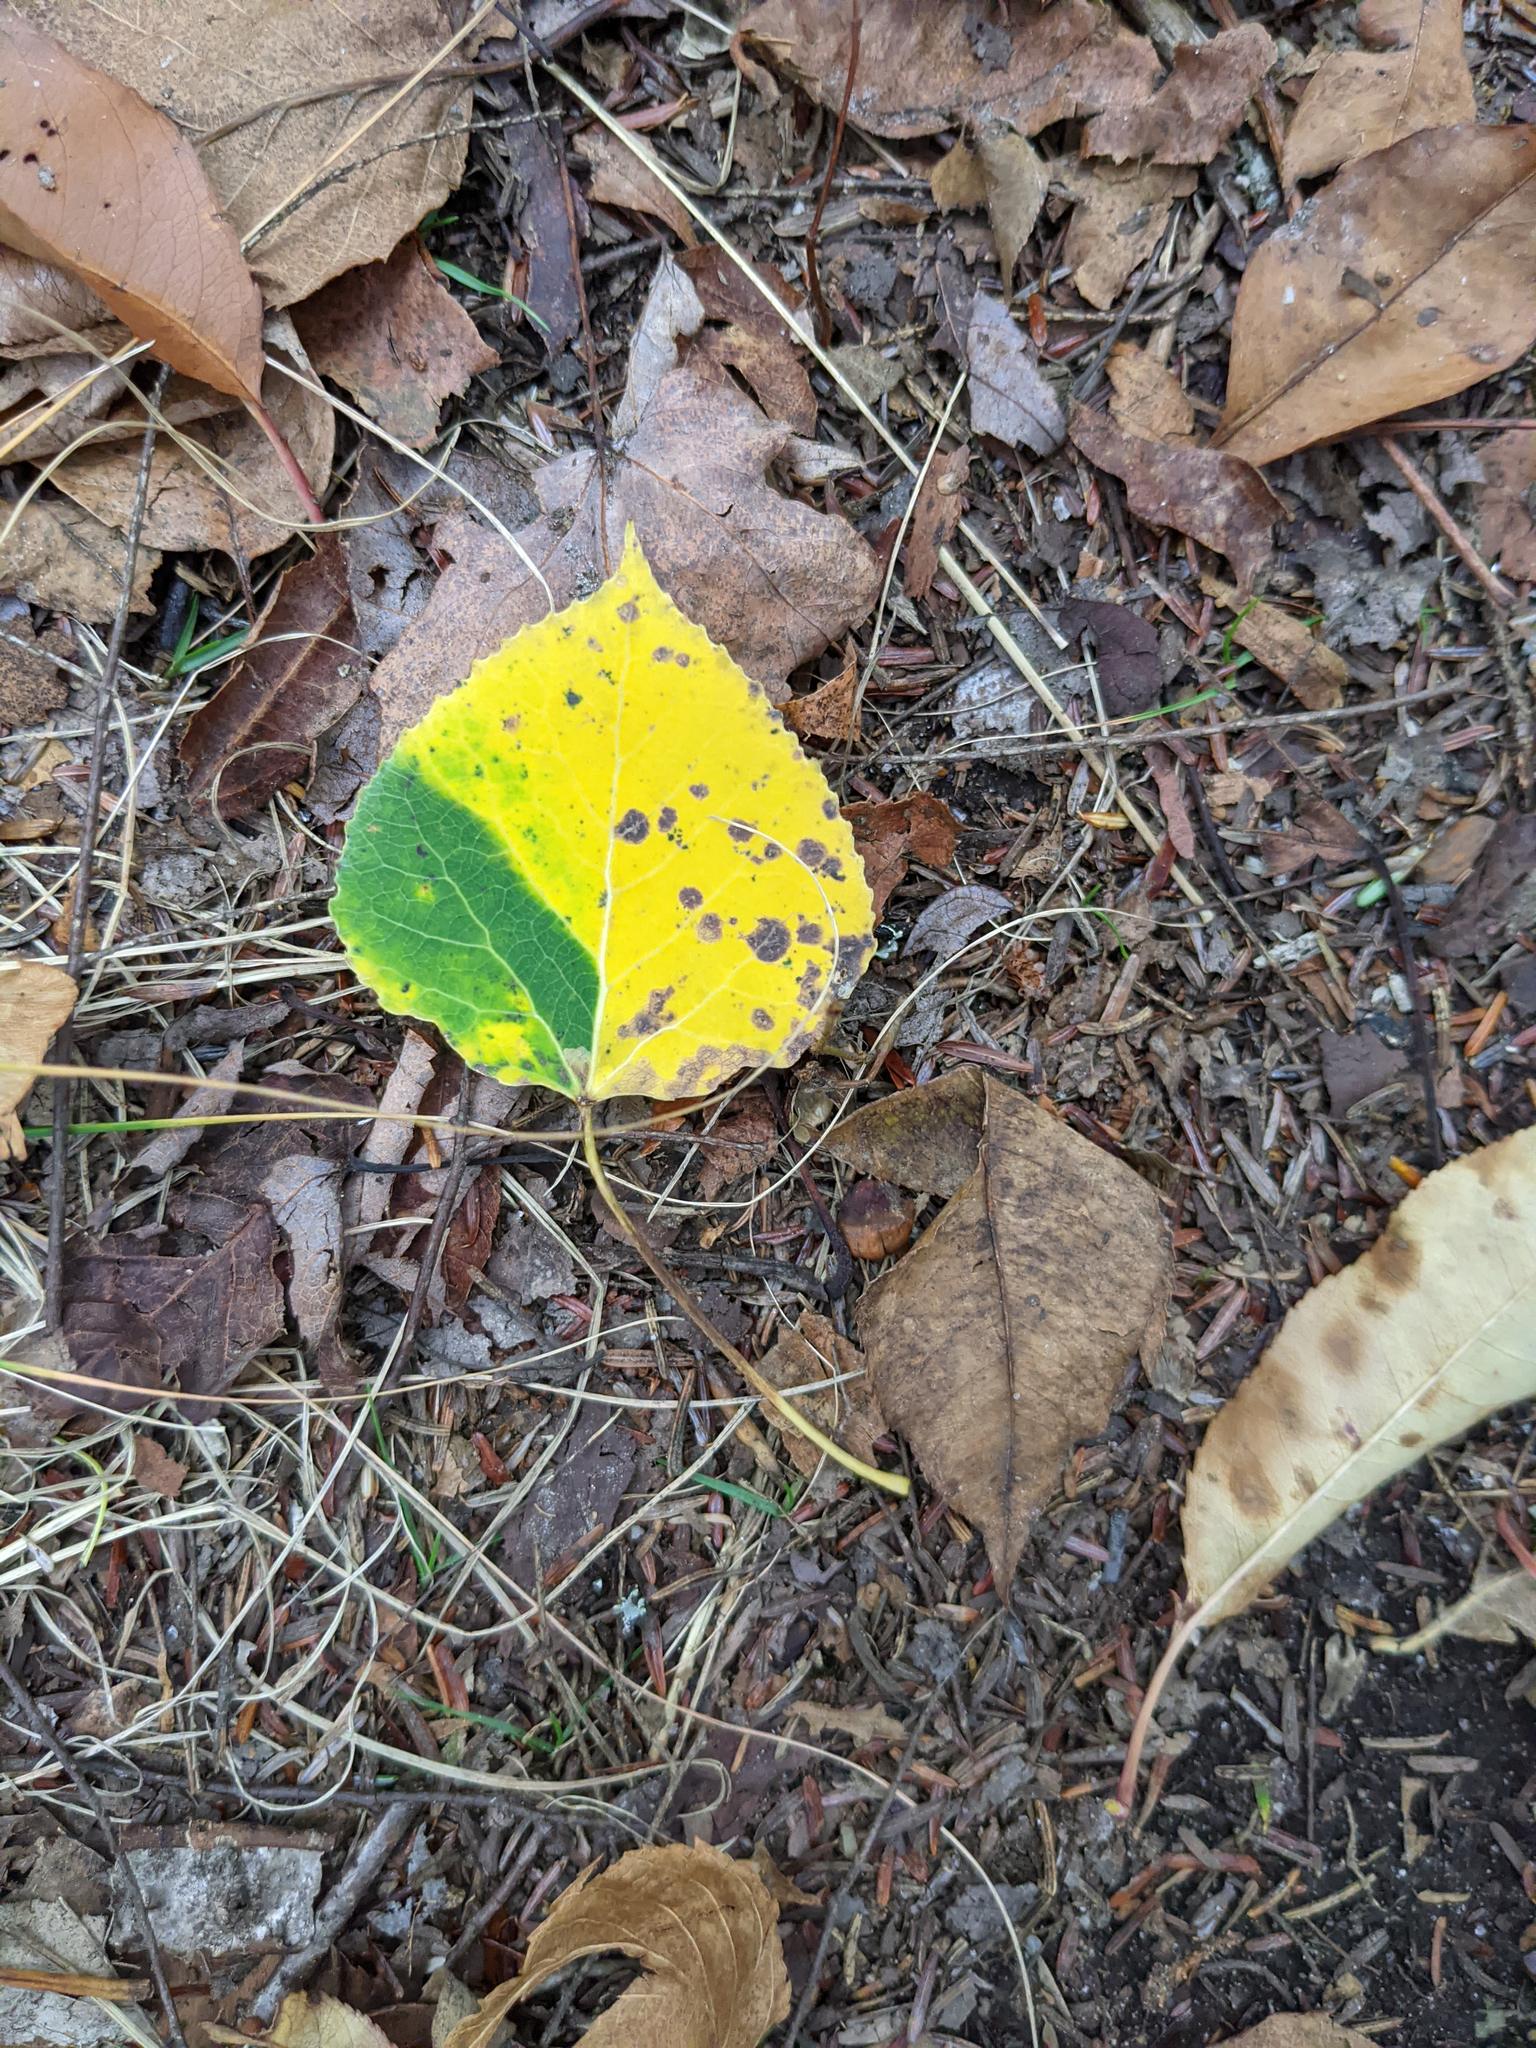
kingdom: Plantae
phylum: Tracheophyta
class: Magnoliopsida
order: Malpighiales
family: Salicaceae
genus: Populus
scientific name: Populus tremuloides
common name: Quaking aspen
